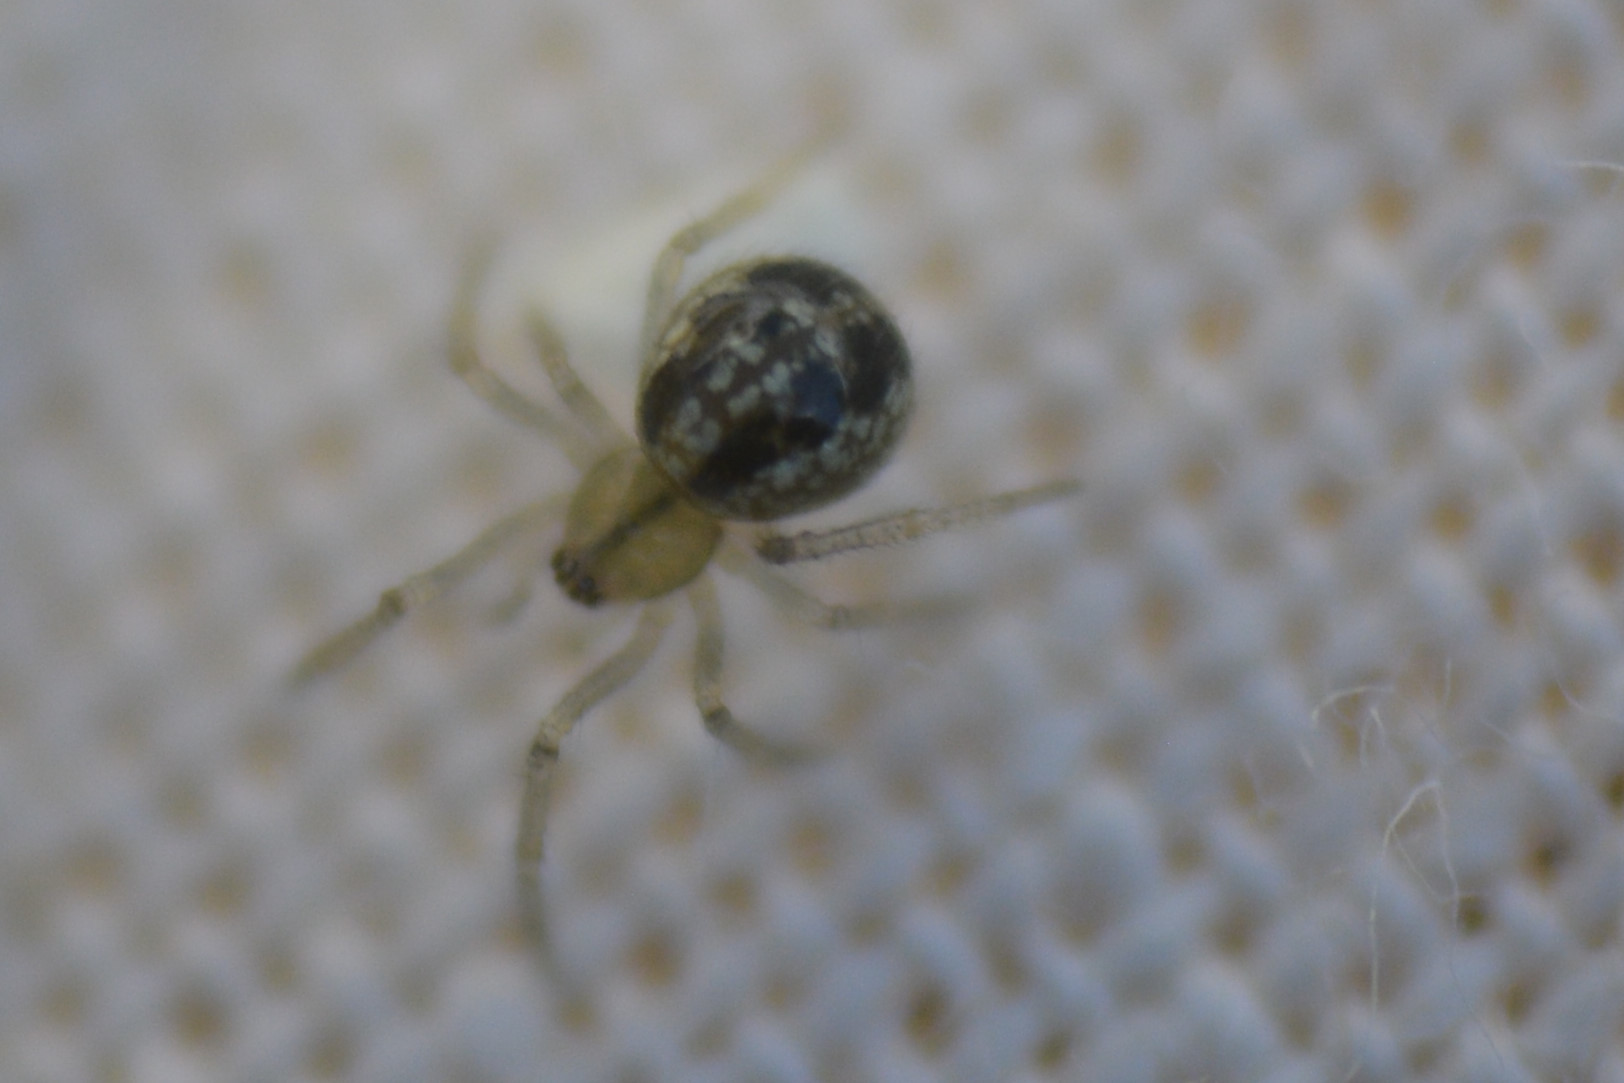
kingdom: Animalia
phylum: Arthropoda
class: Arachnida
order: Araneae
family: Theridiidae
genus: Enoplognatha
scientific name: Enoplognatha
